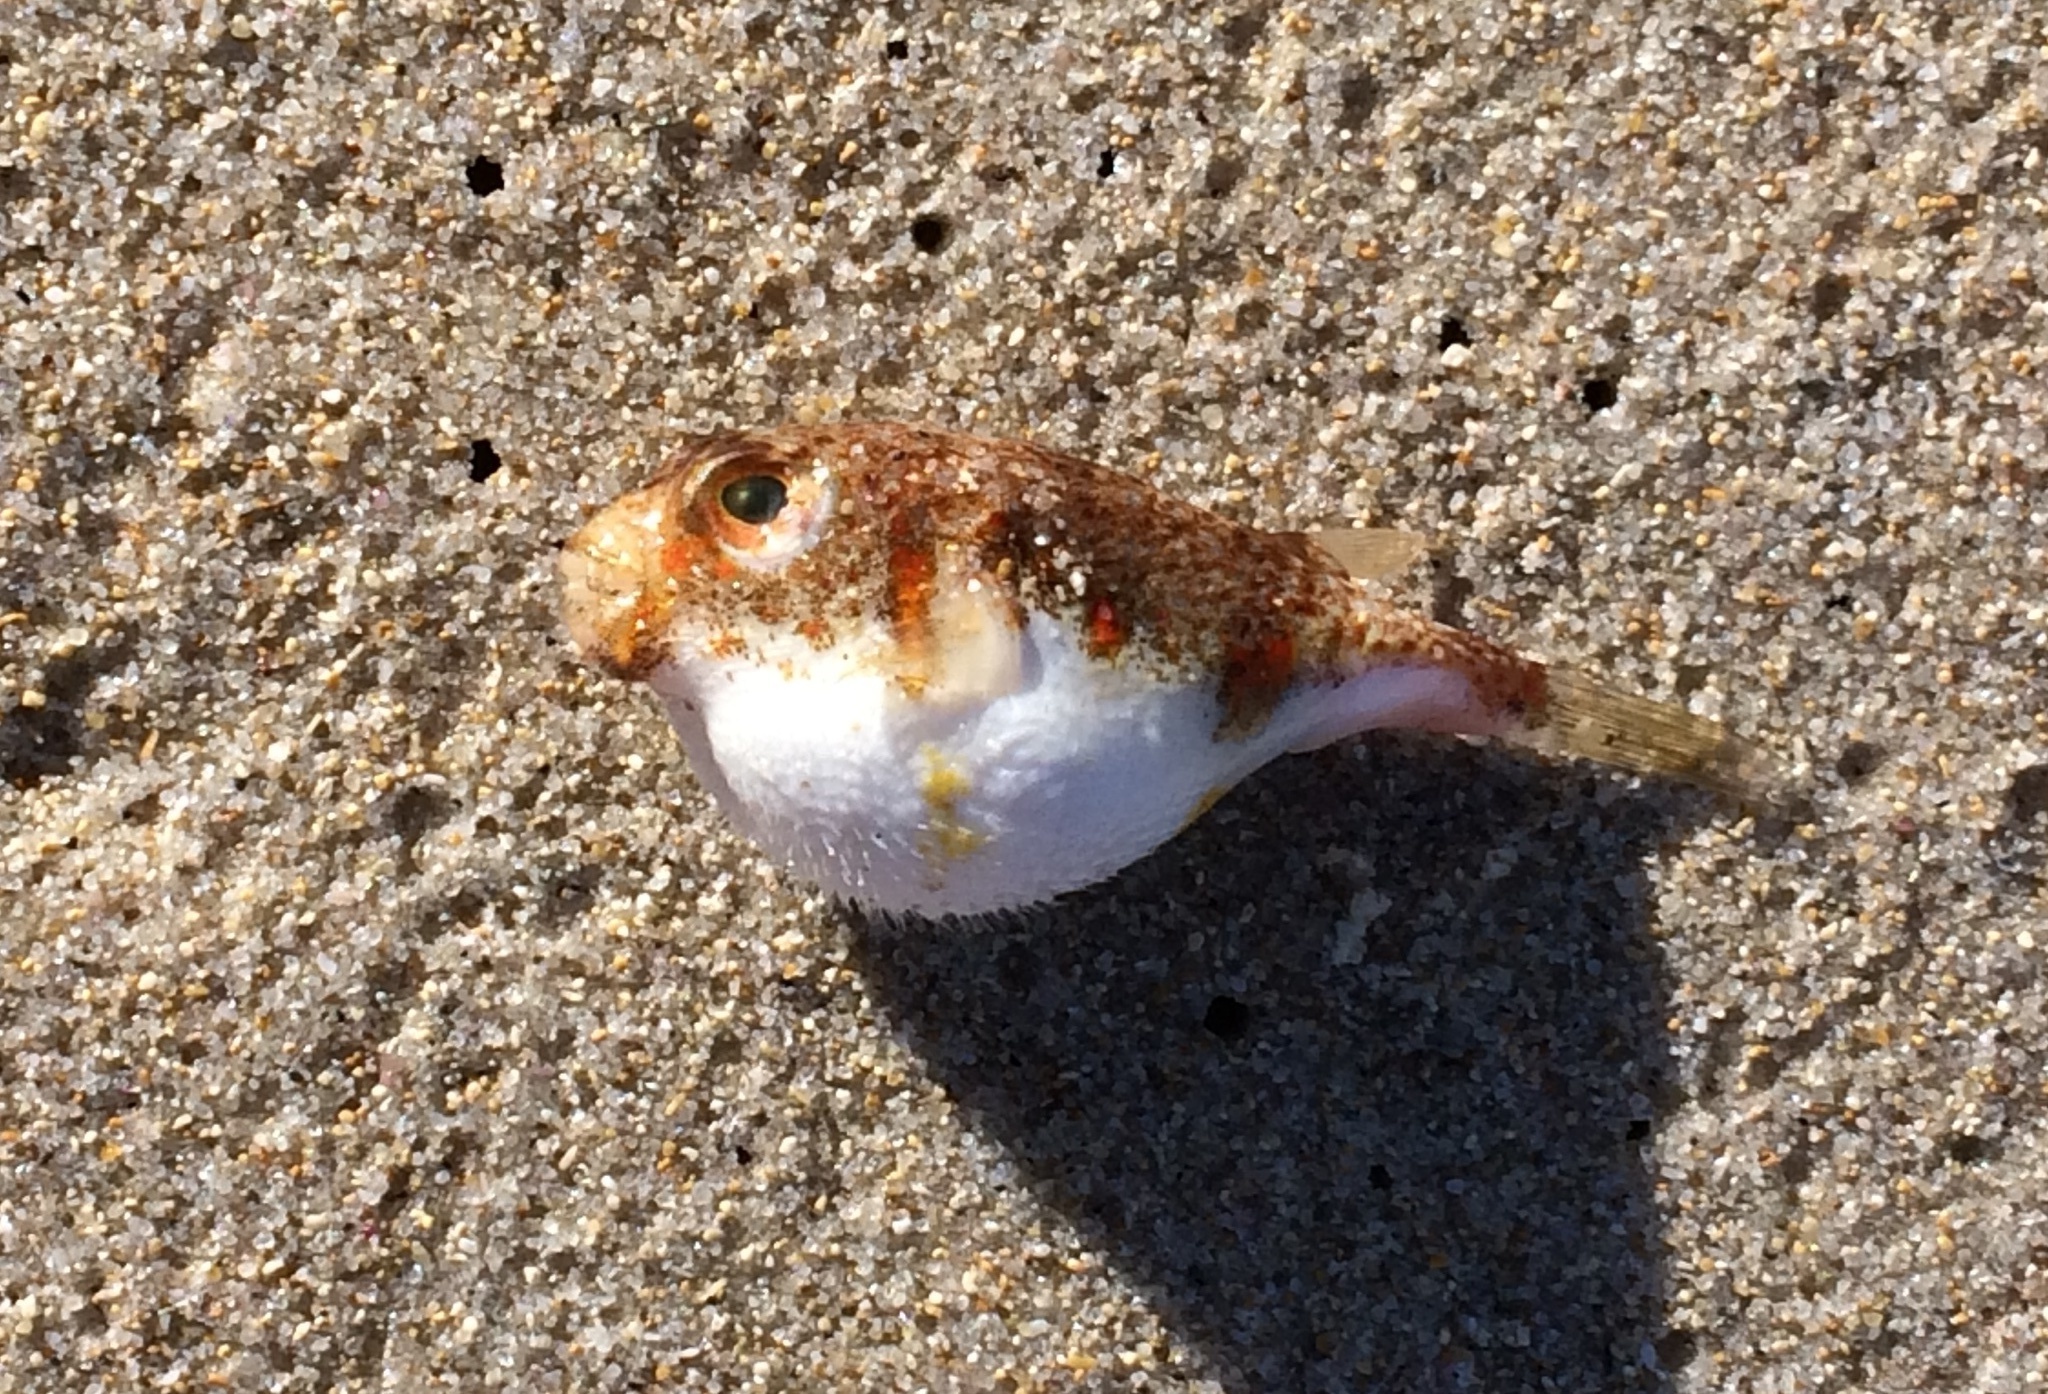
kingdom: Animalia
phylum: Chordata
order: Tetraodontiformes
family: Tetraodontidae
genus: Polyspina
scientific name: Polyspina piosae
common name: Orange-barred pufferfish
